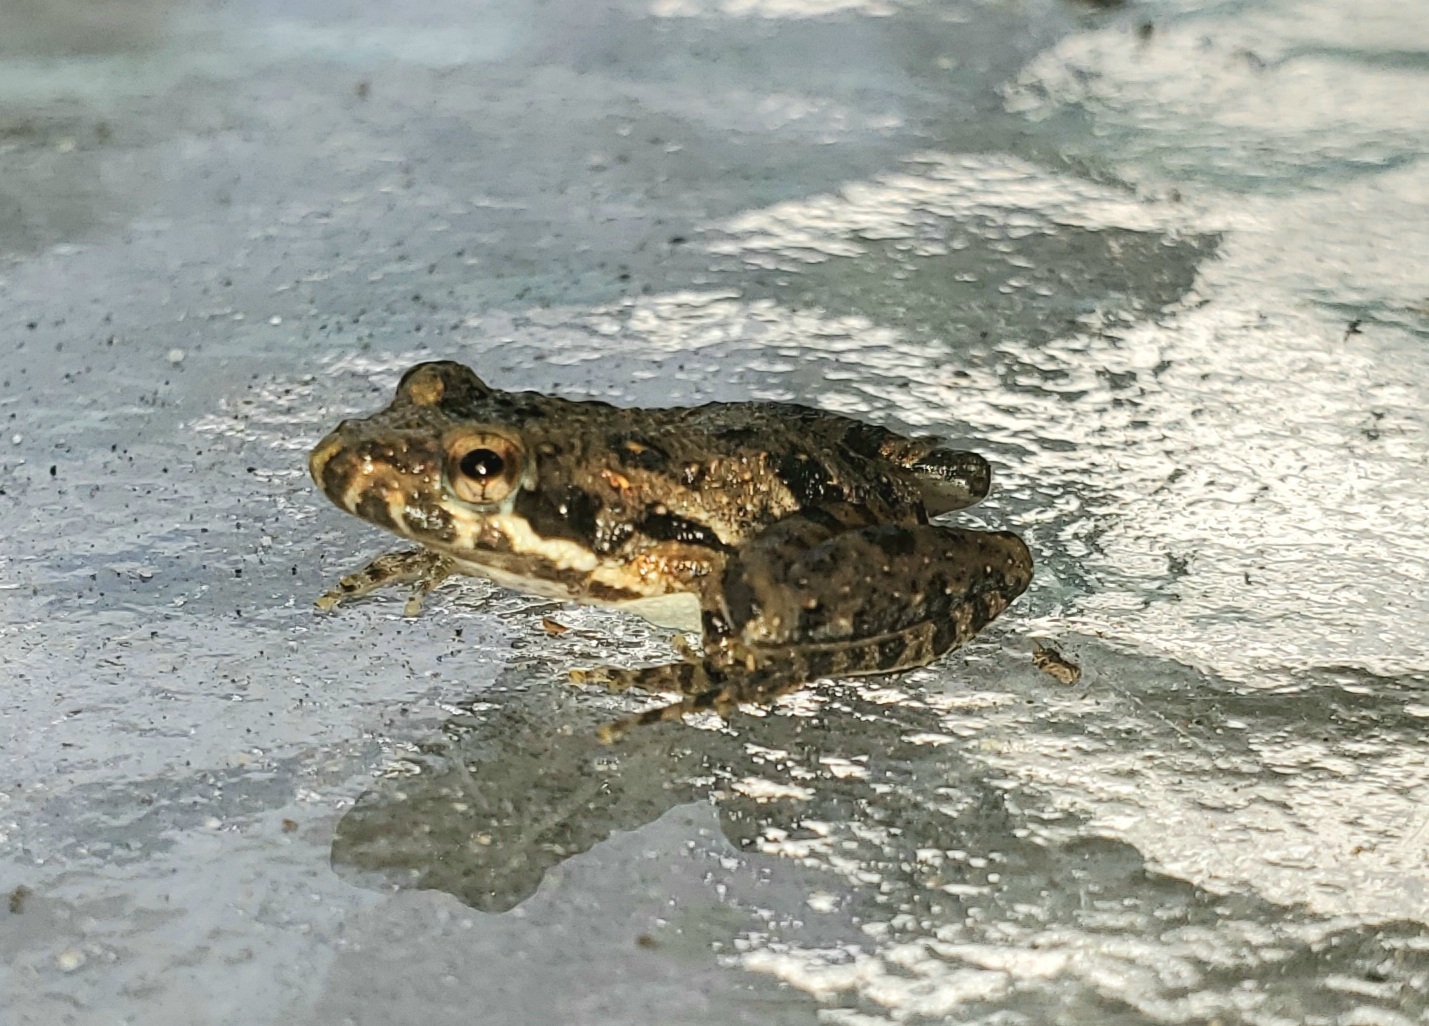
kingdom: Animalia
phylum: Chordata
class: Amphibia
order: Anura
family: Hylidae
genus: Acris
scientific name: Acris gryllus
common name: Southern cricket frog
